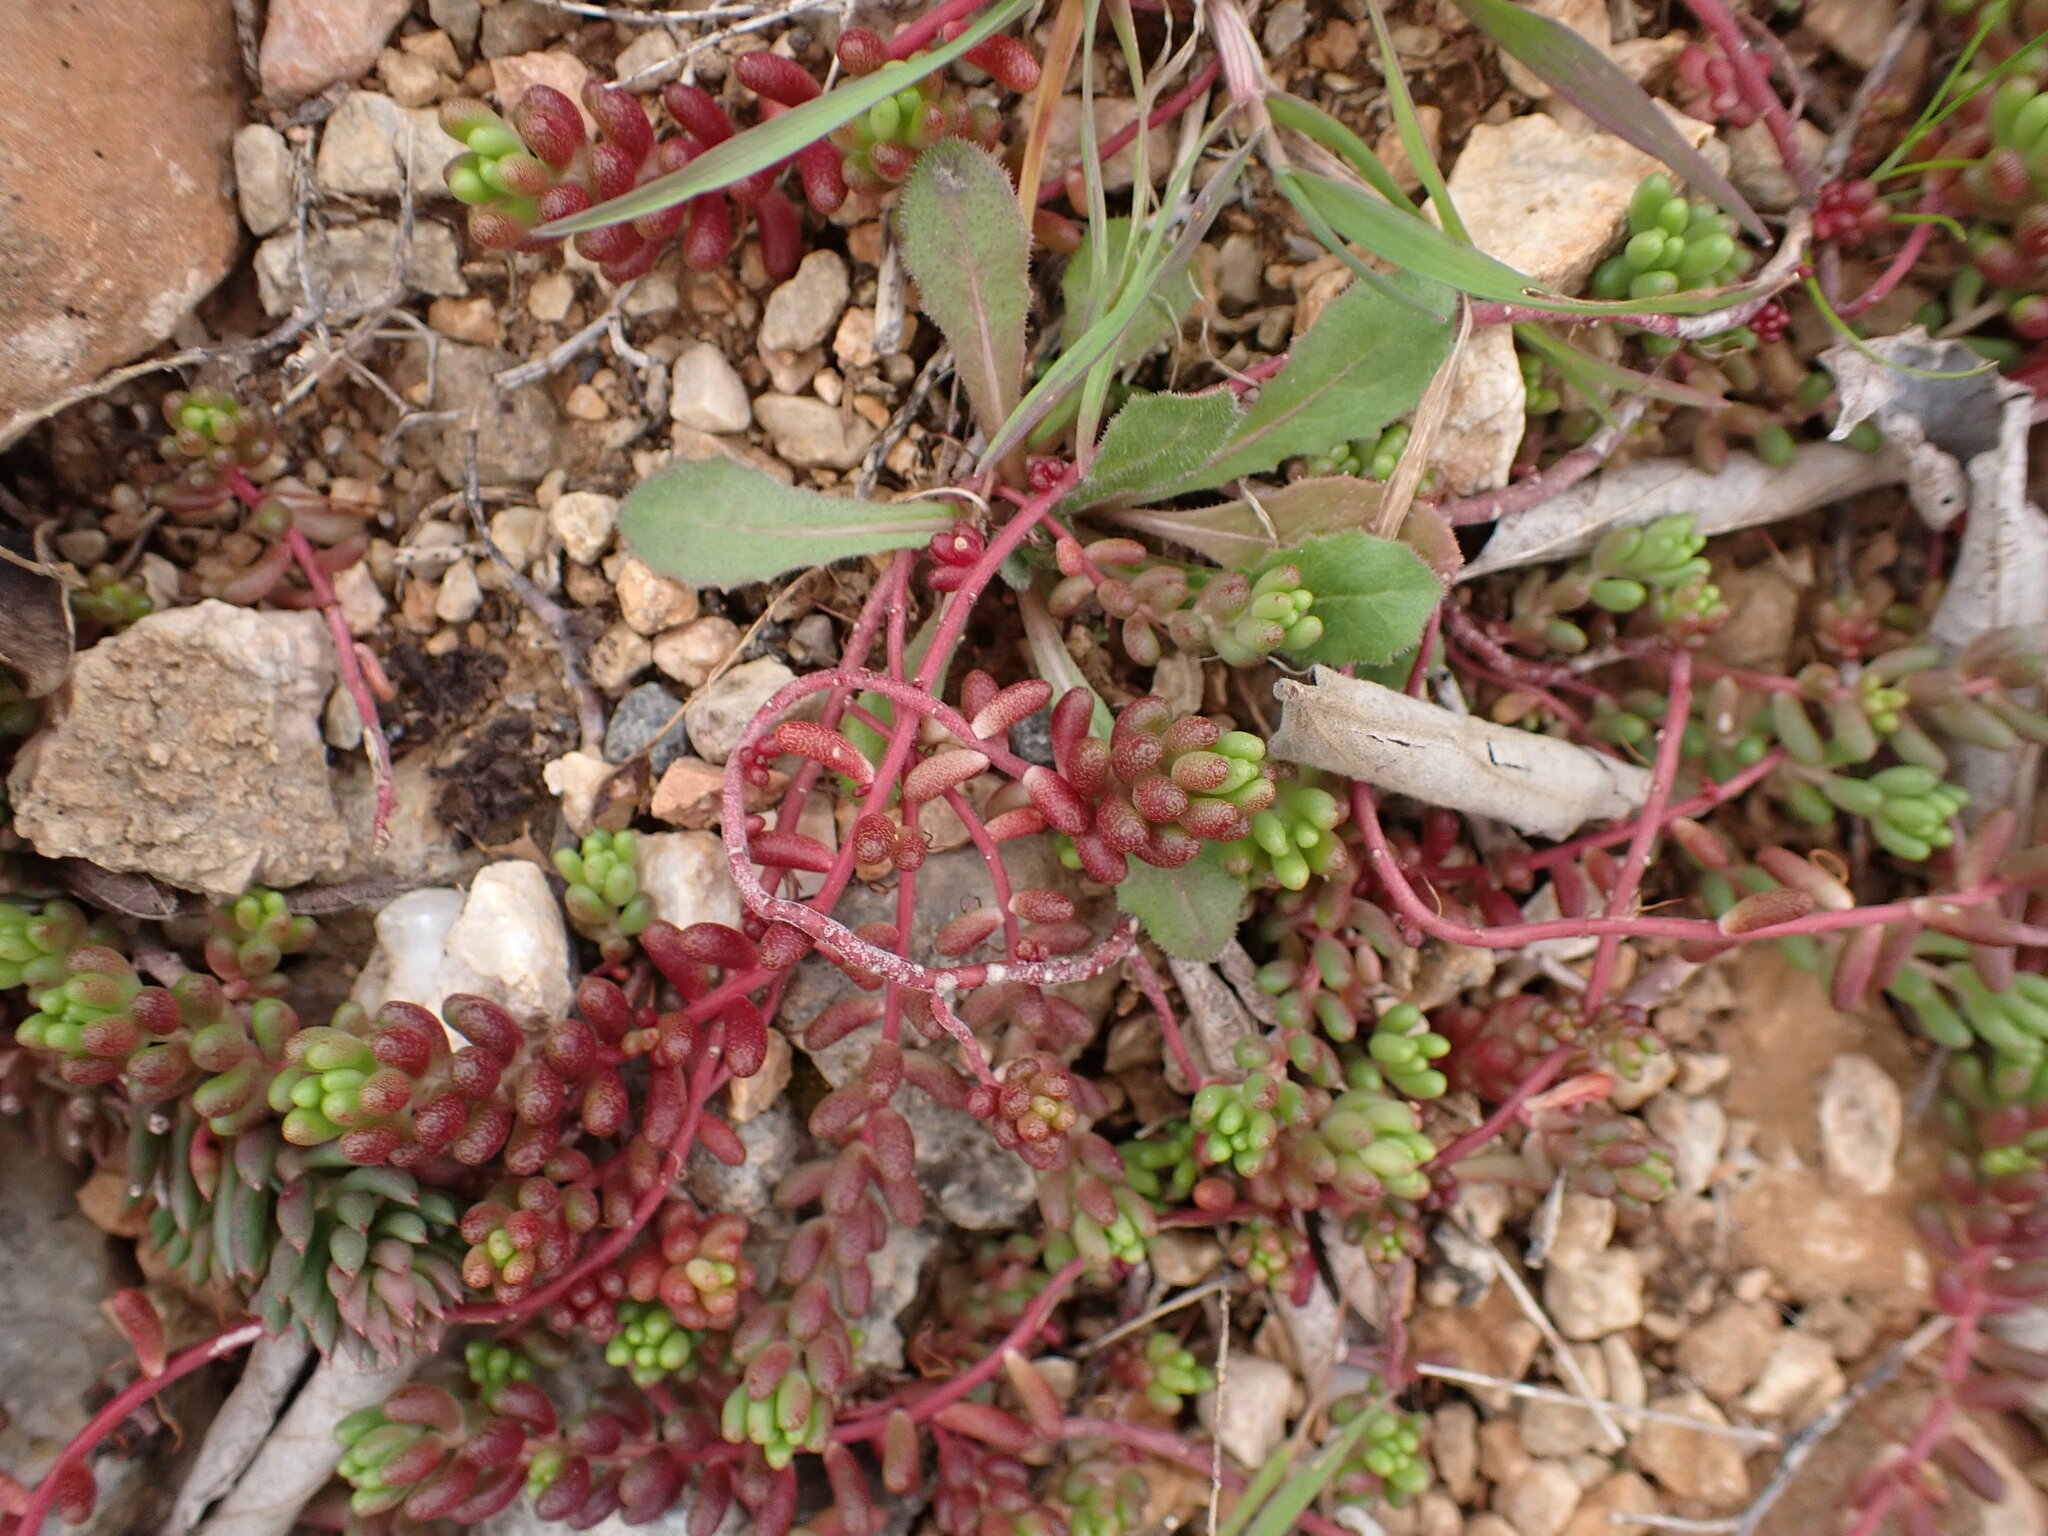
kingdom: Plantae
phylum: Tracheophyta
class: Magnoliopsida
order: Saxifragales
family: Crassulaceae
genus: Sedum
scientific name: Sedum album
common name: White stonecrop
